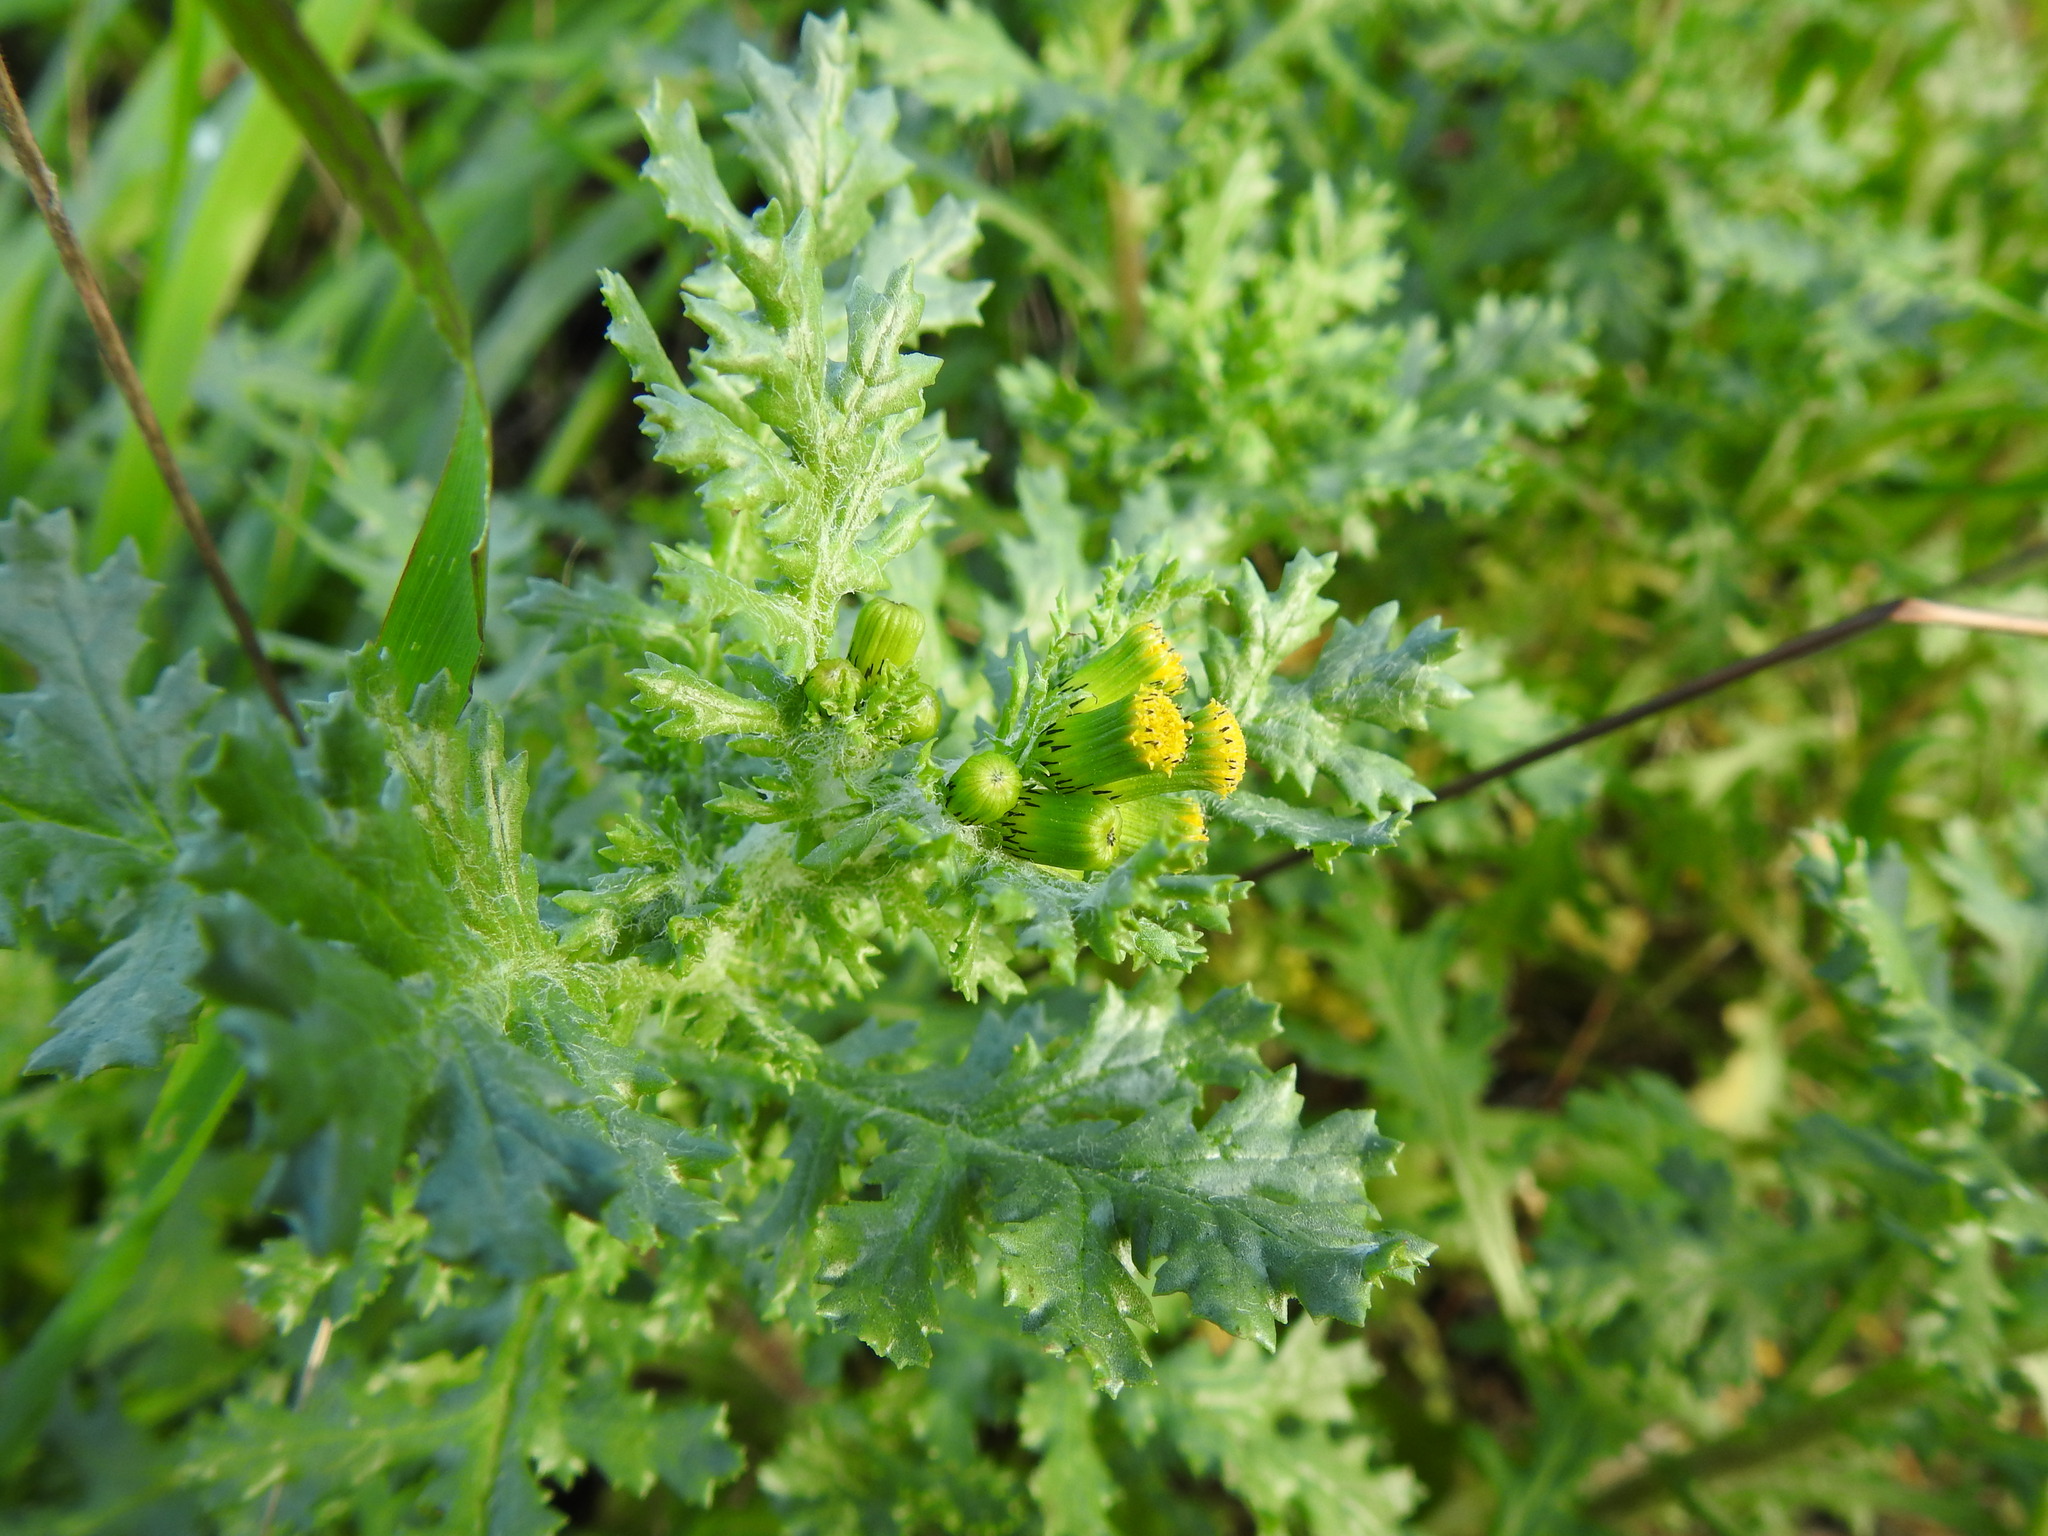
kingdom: Plantae
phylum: Tracheophyta
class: Magnoliopsida
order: Asterales
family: Asteraceae
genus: Senecio
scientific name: Senecio vulgaris
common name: Old-man-in-the-spring
